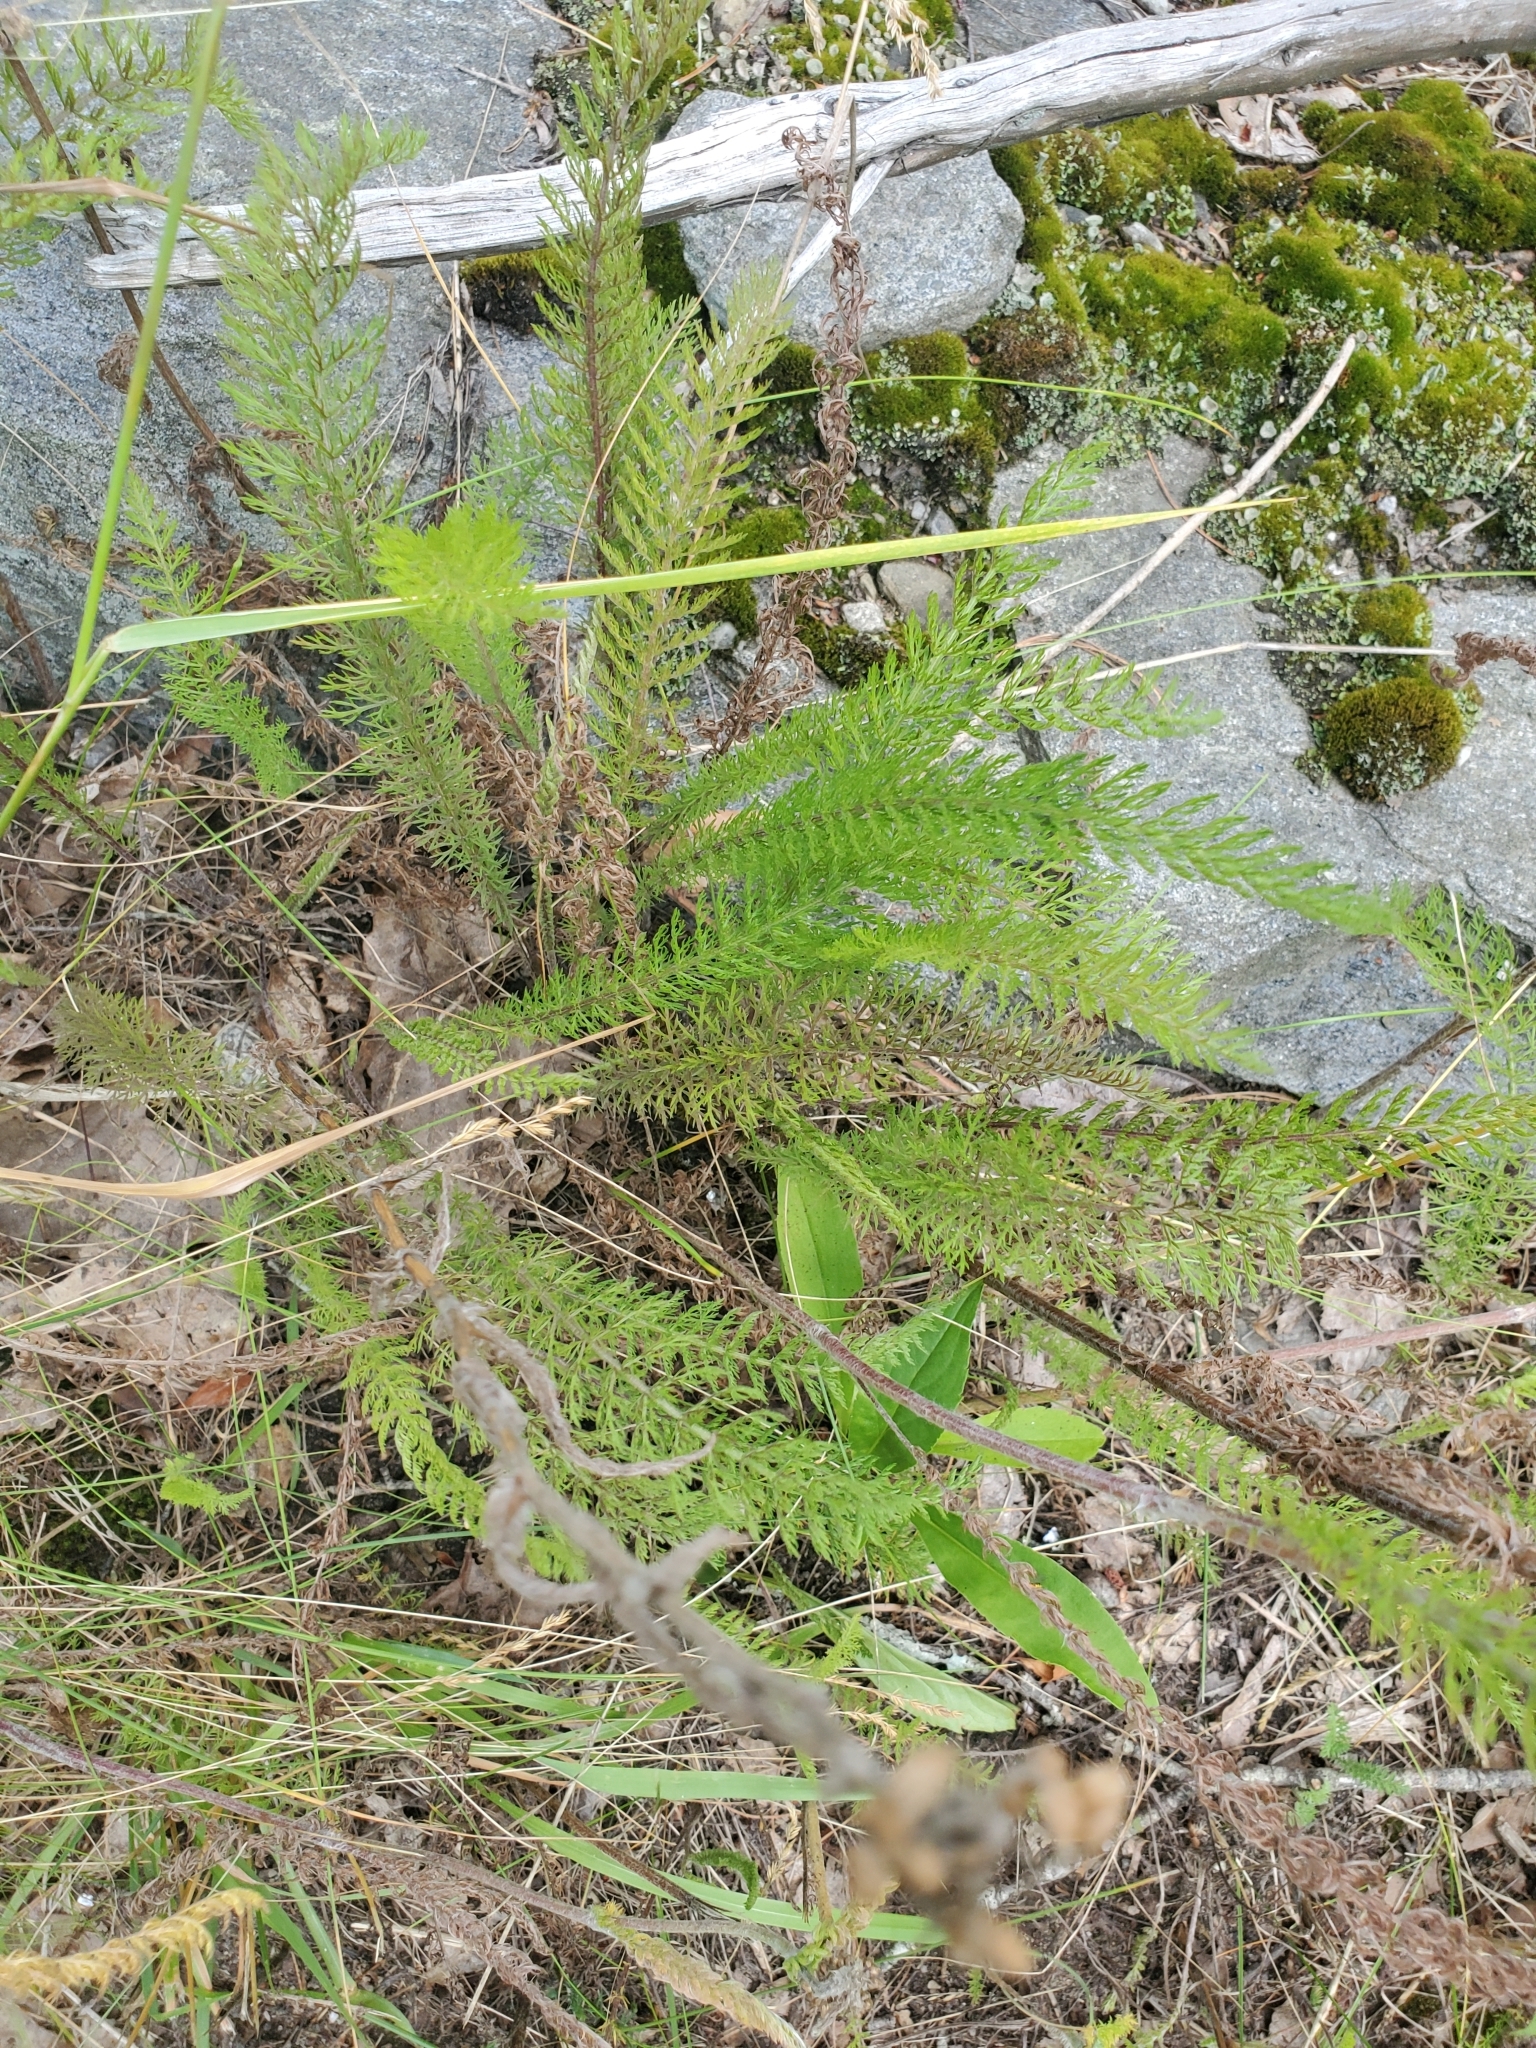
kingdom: Plantae
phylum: Tracheophyta
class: Magnoliopsida
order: Asterales
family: Asteraceae
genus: Achillea
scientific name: Achillea millefolium
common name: Yarrow
